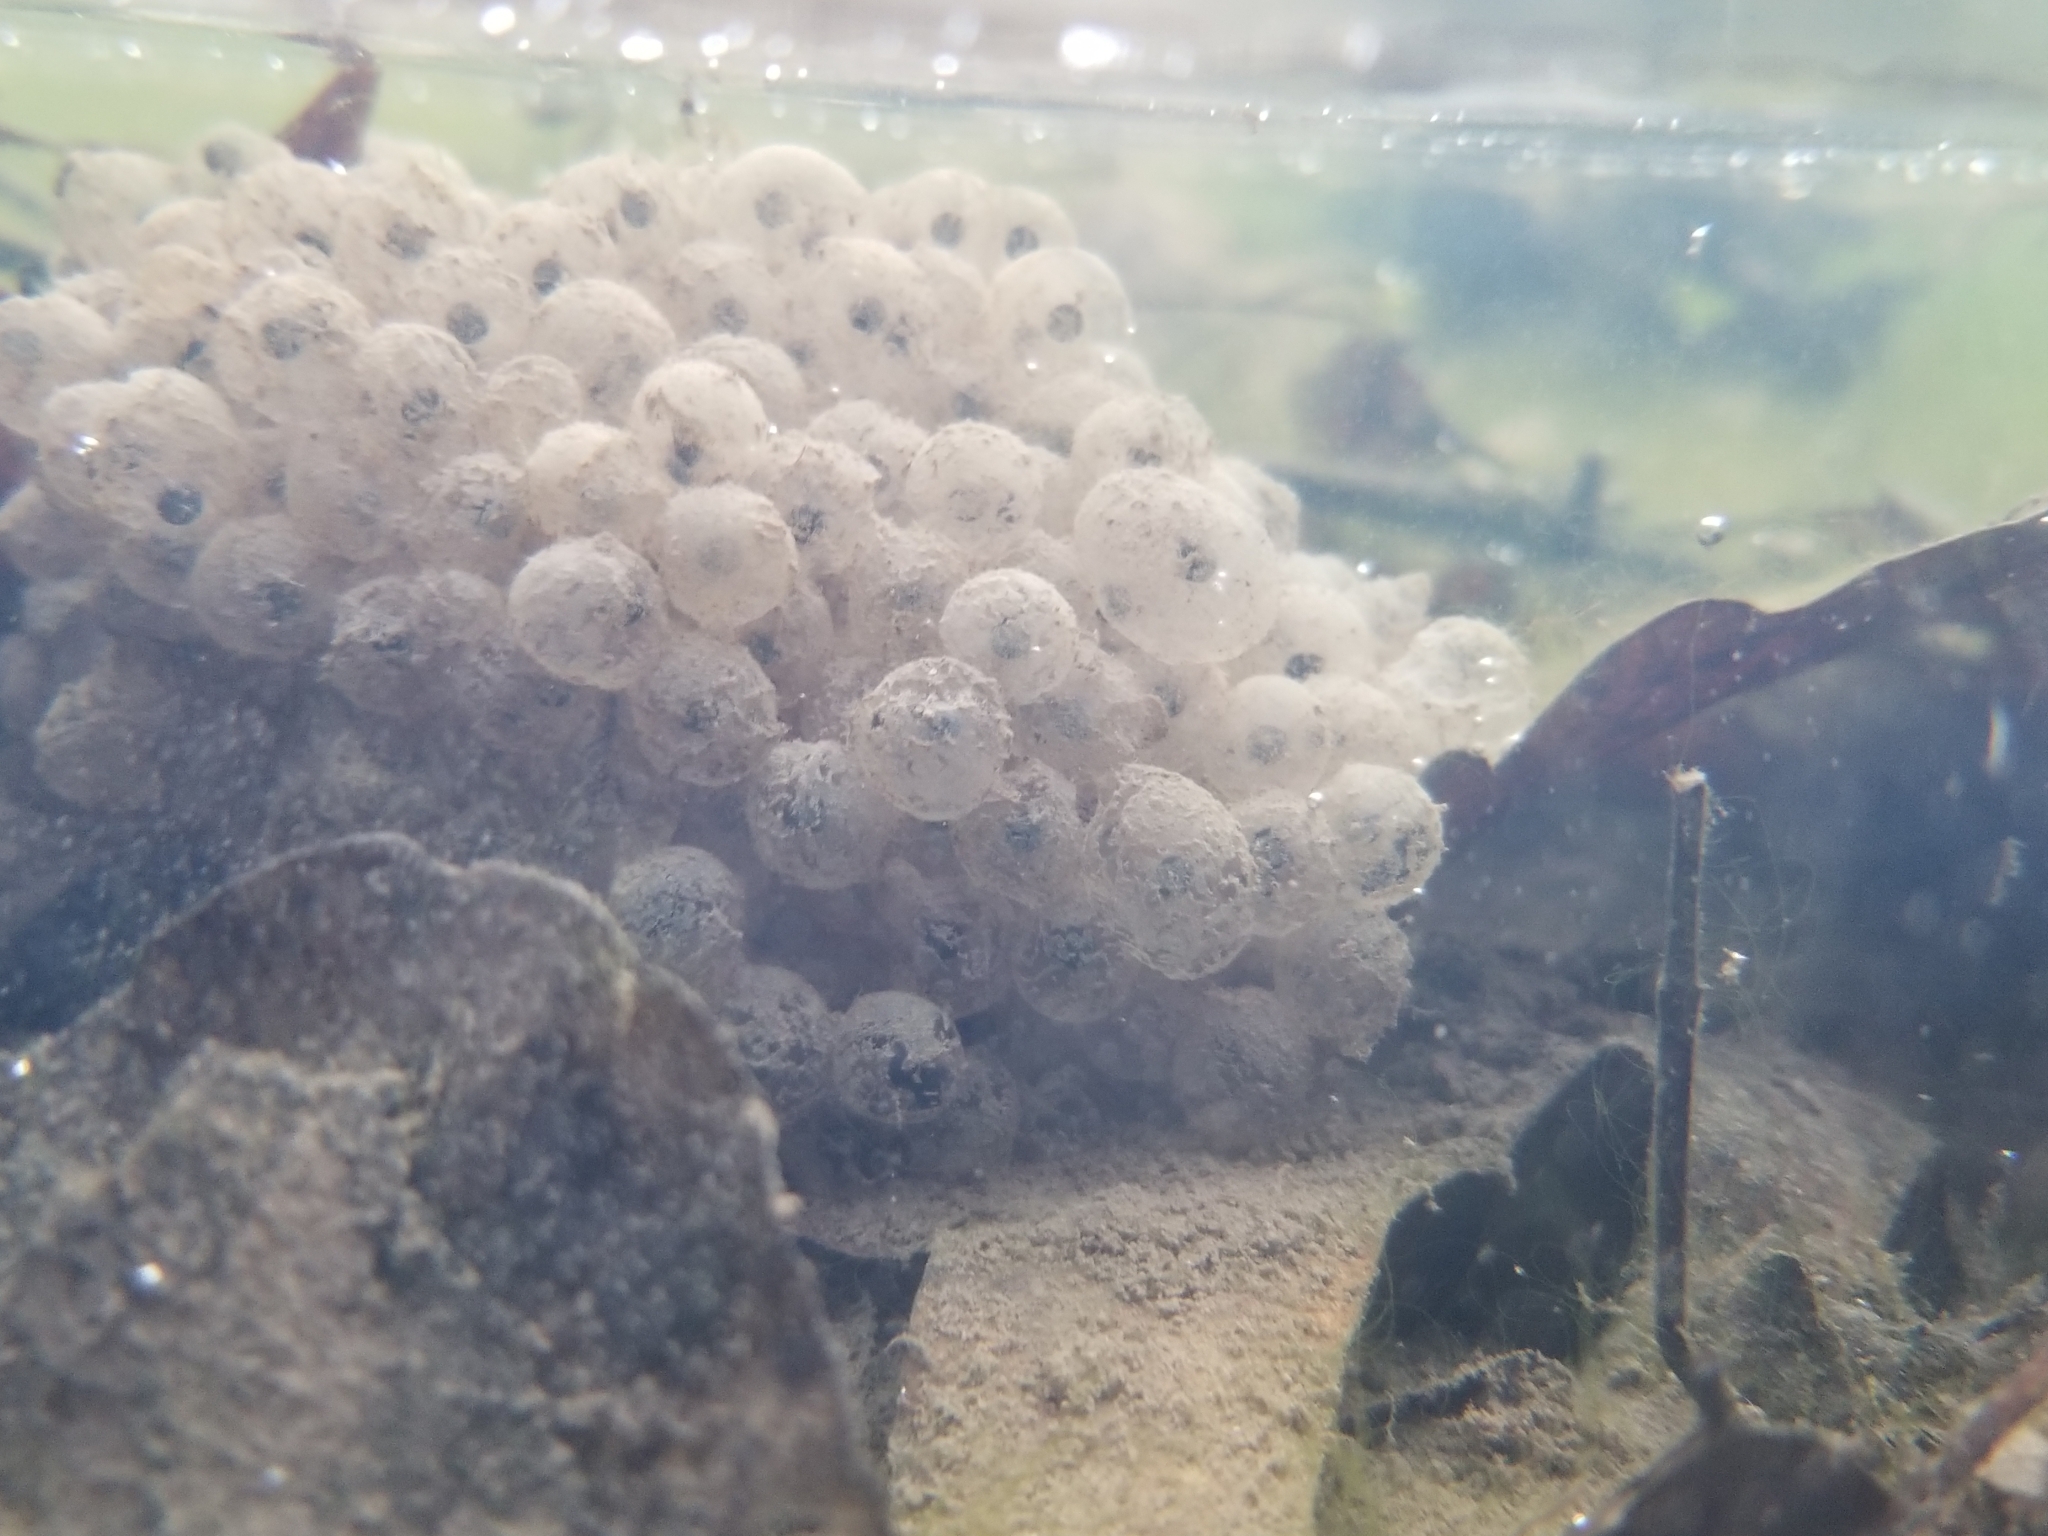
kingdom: Animalia
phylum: Chordata
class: Amphibia
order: Anura
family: Ranidae
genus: Lithobates
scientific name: Lithobates sylvaticus
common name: Wood frog
